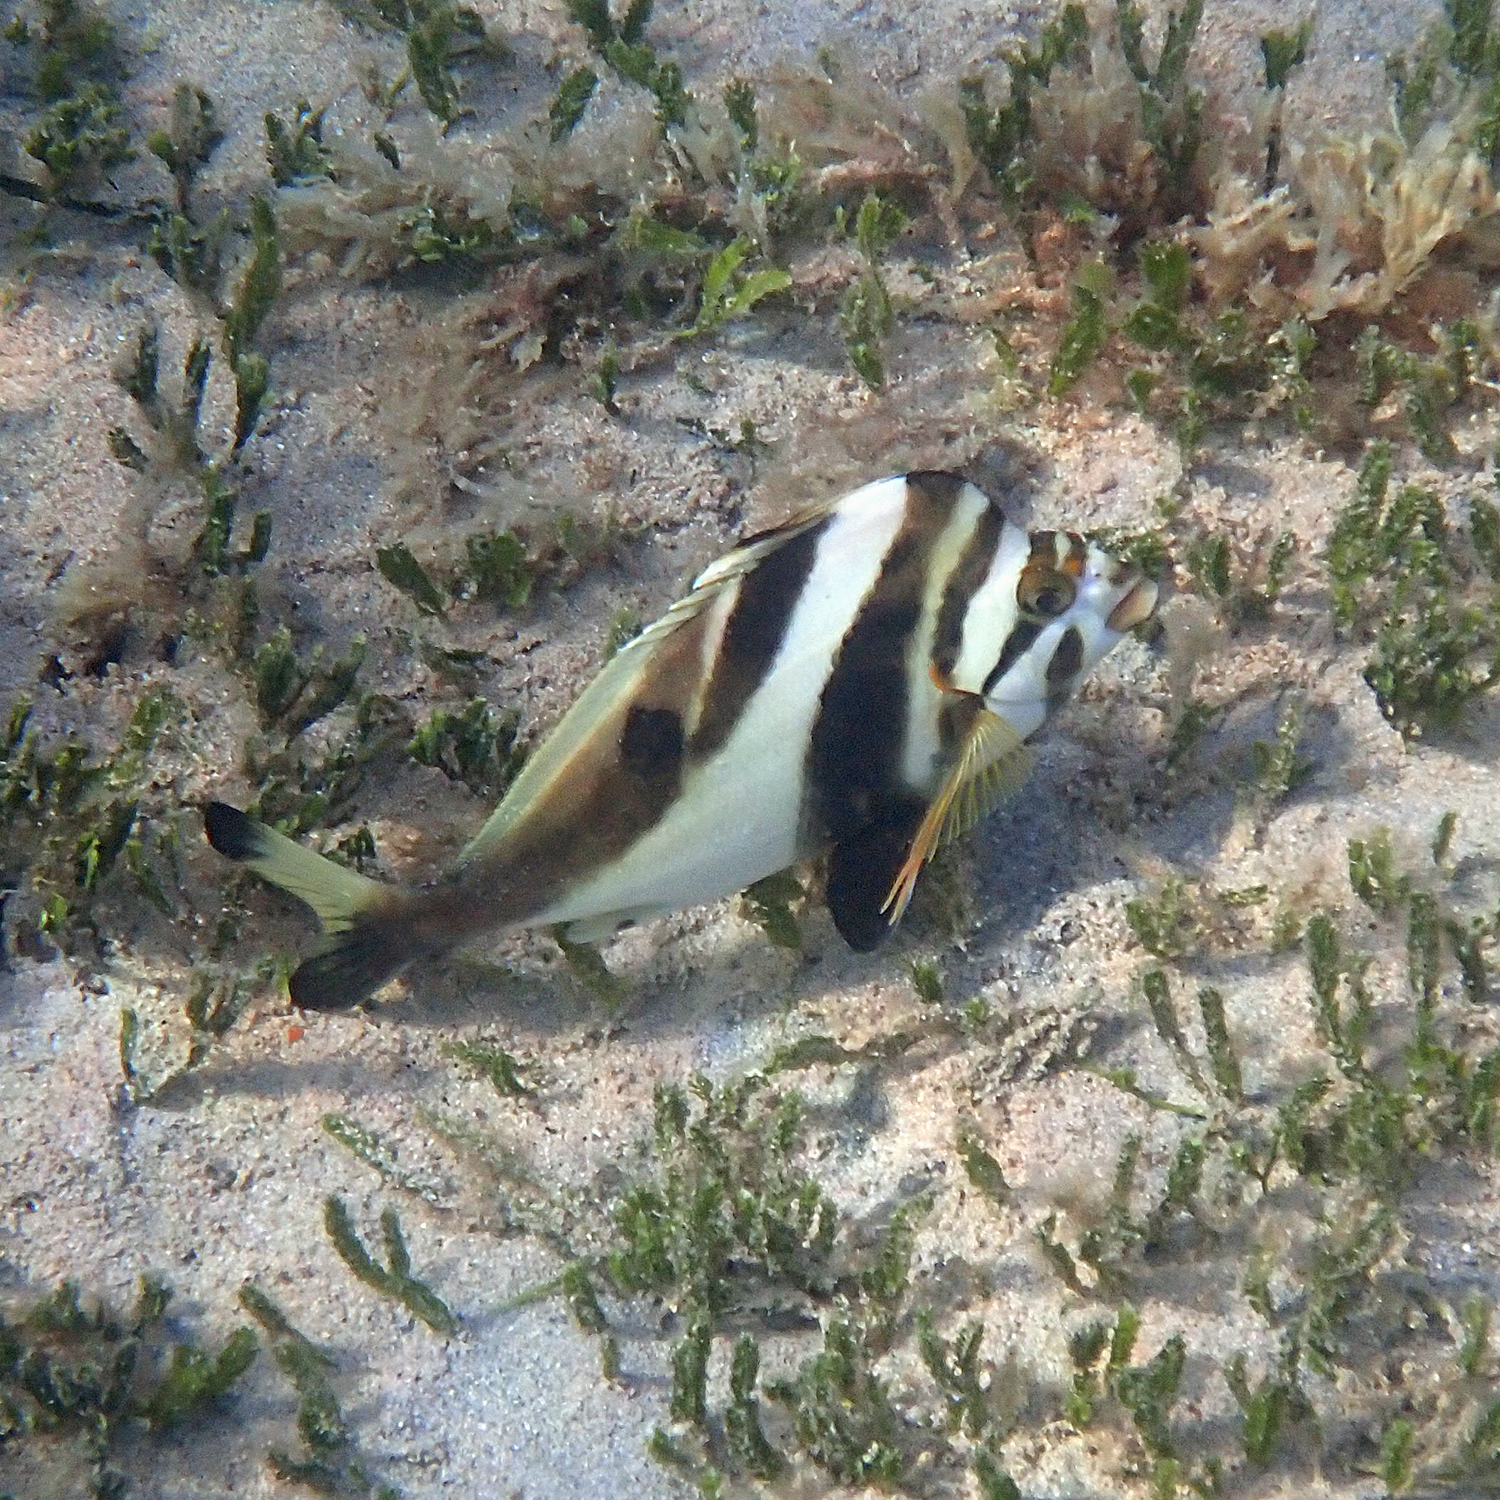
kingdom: Animalia
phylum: Chordata
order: Perciformes
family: Cheilodactylidae
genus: Cheilodactylus
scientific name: Cheilodactylus francisi
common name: Blacktip morwong
